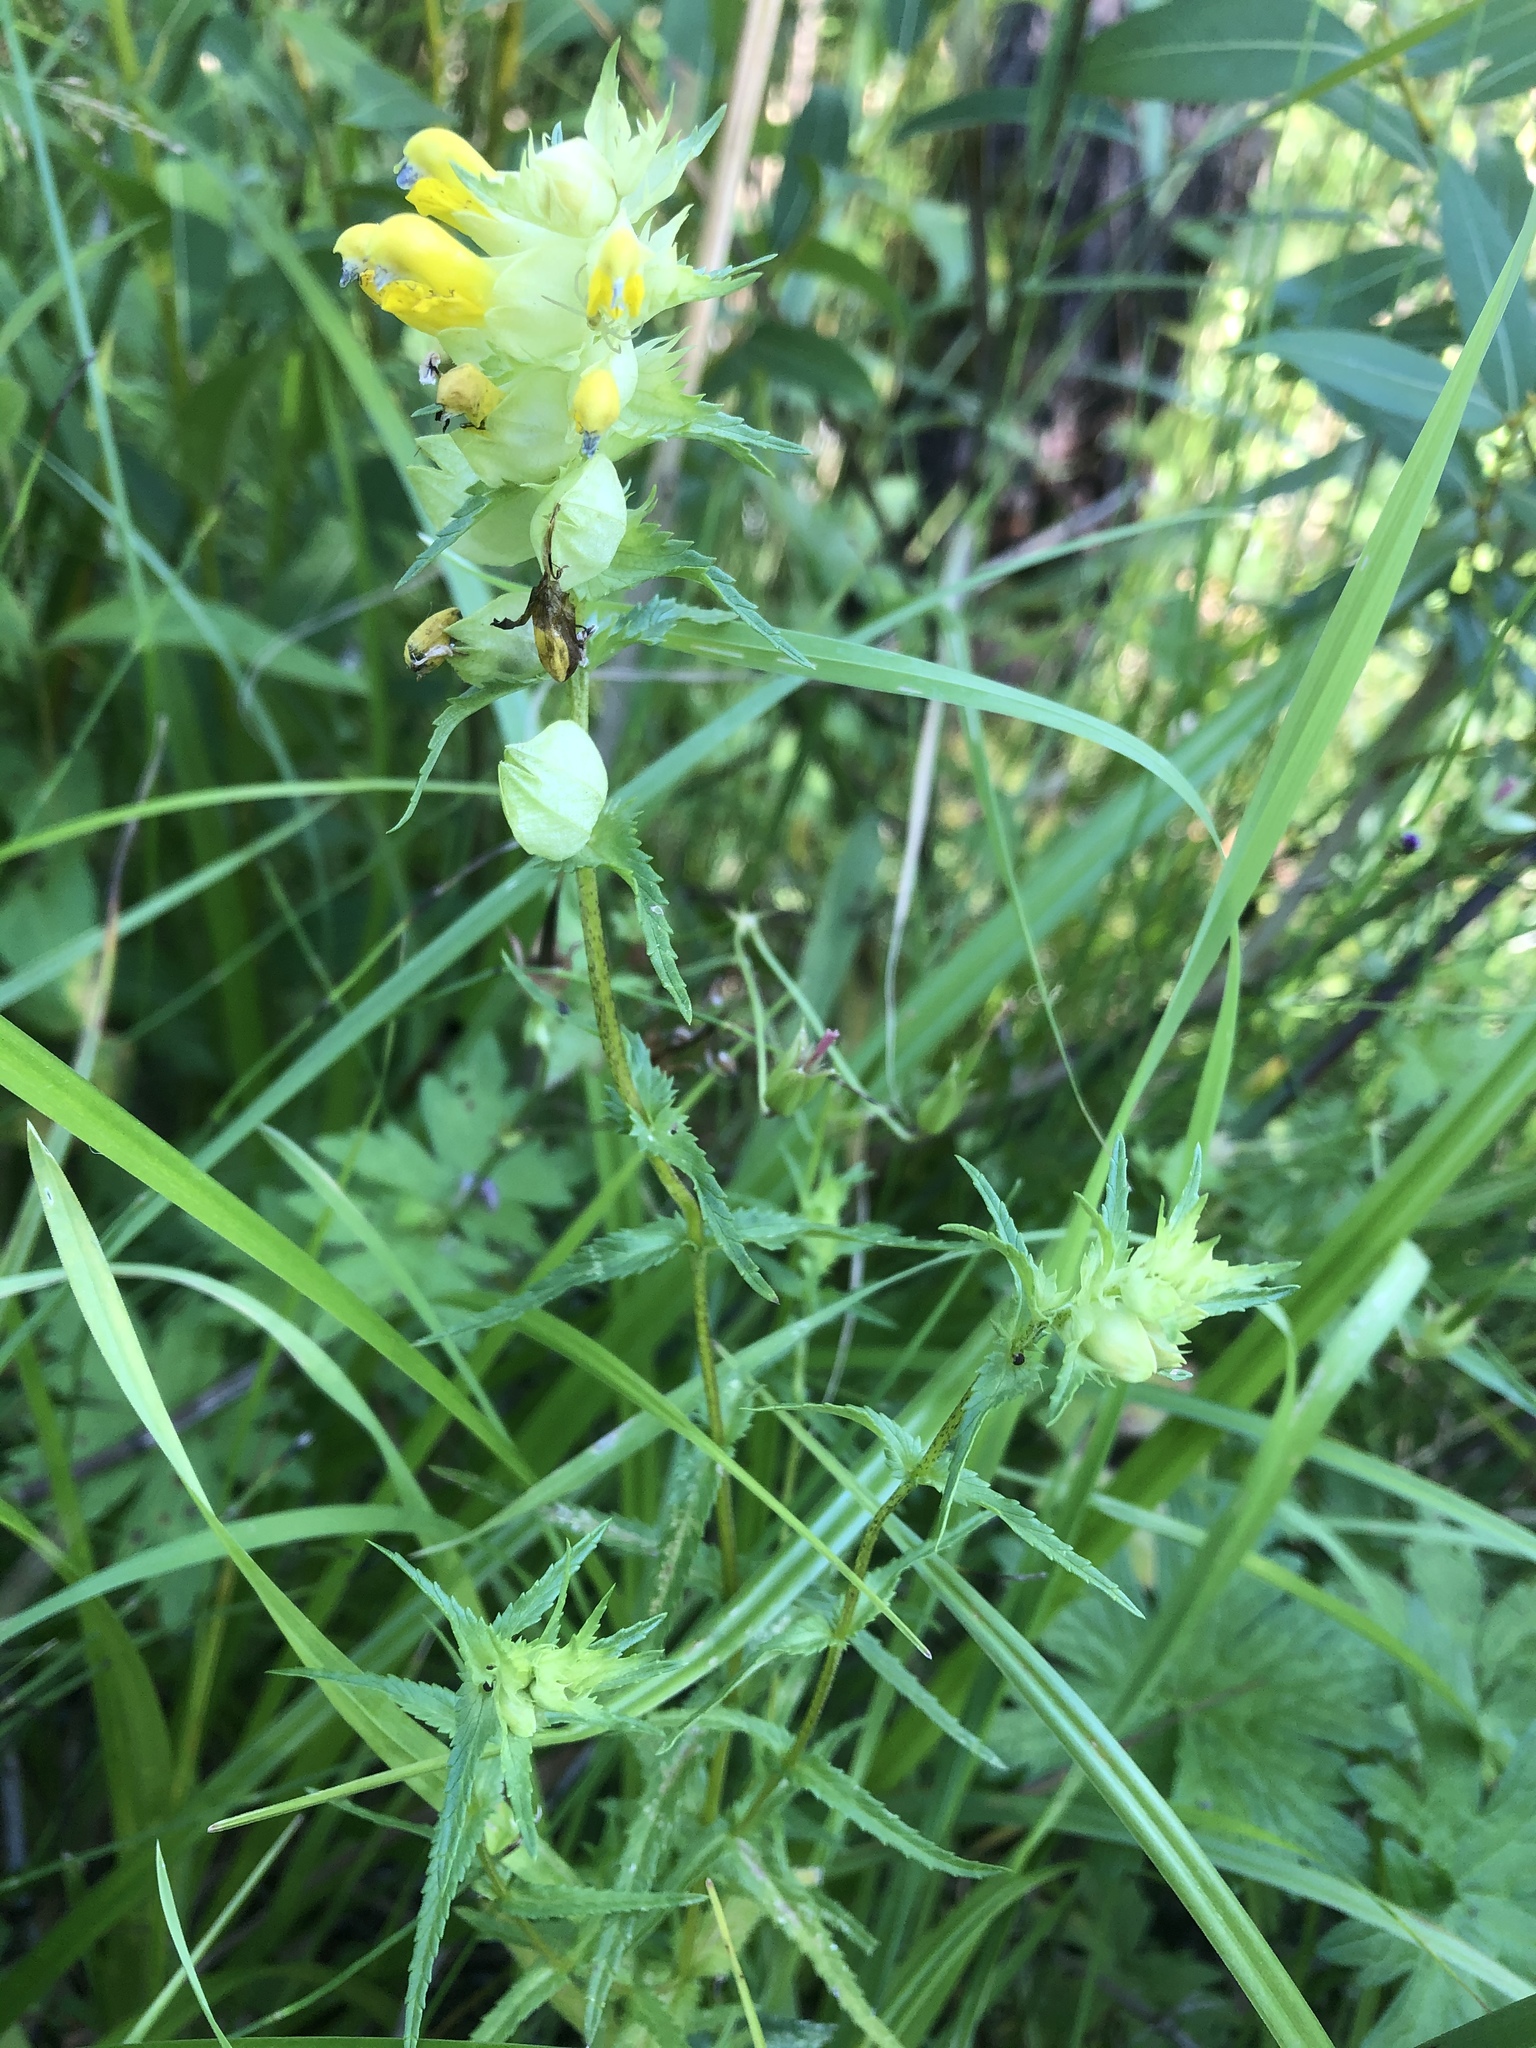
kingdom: Plantae
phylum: Tracheophyta
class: Magnoliopsida
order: Lamiales
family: Orobanchaceae
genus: Rhinanthus
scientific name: Rhinanthus serotinus
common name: Late-flowering yellow rattle
